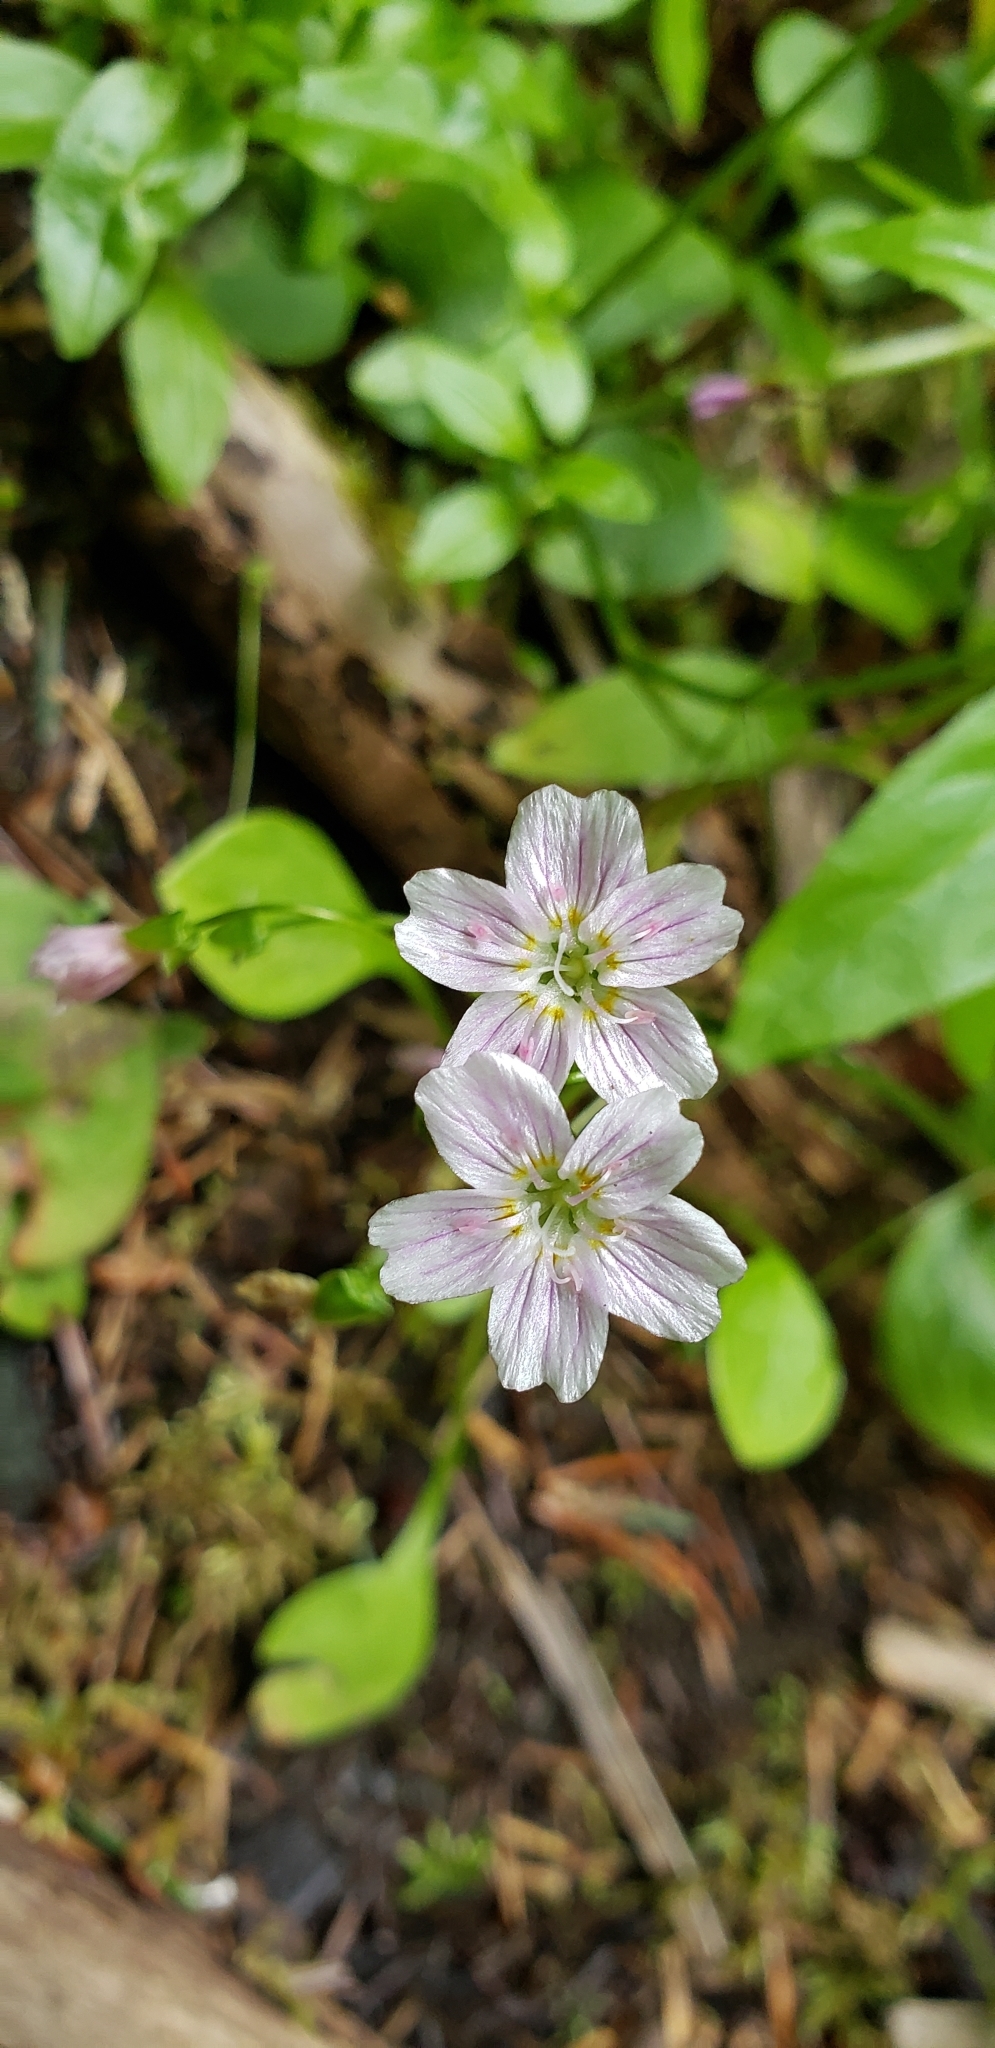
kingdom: Plantae
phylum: Tracheophyta
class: Magnoliopsida
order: Caryophyllales
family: Montiaceae
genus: Claytonia
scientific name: Claytonia sibirica
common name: Pink purslane
